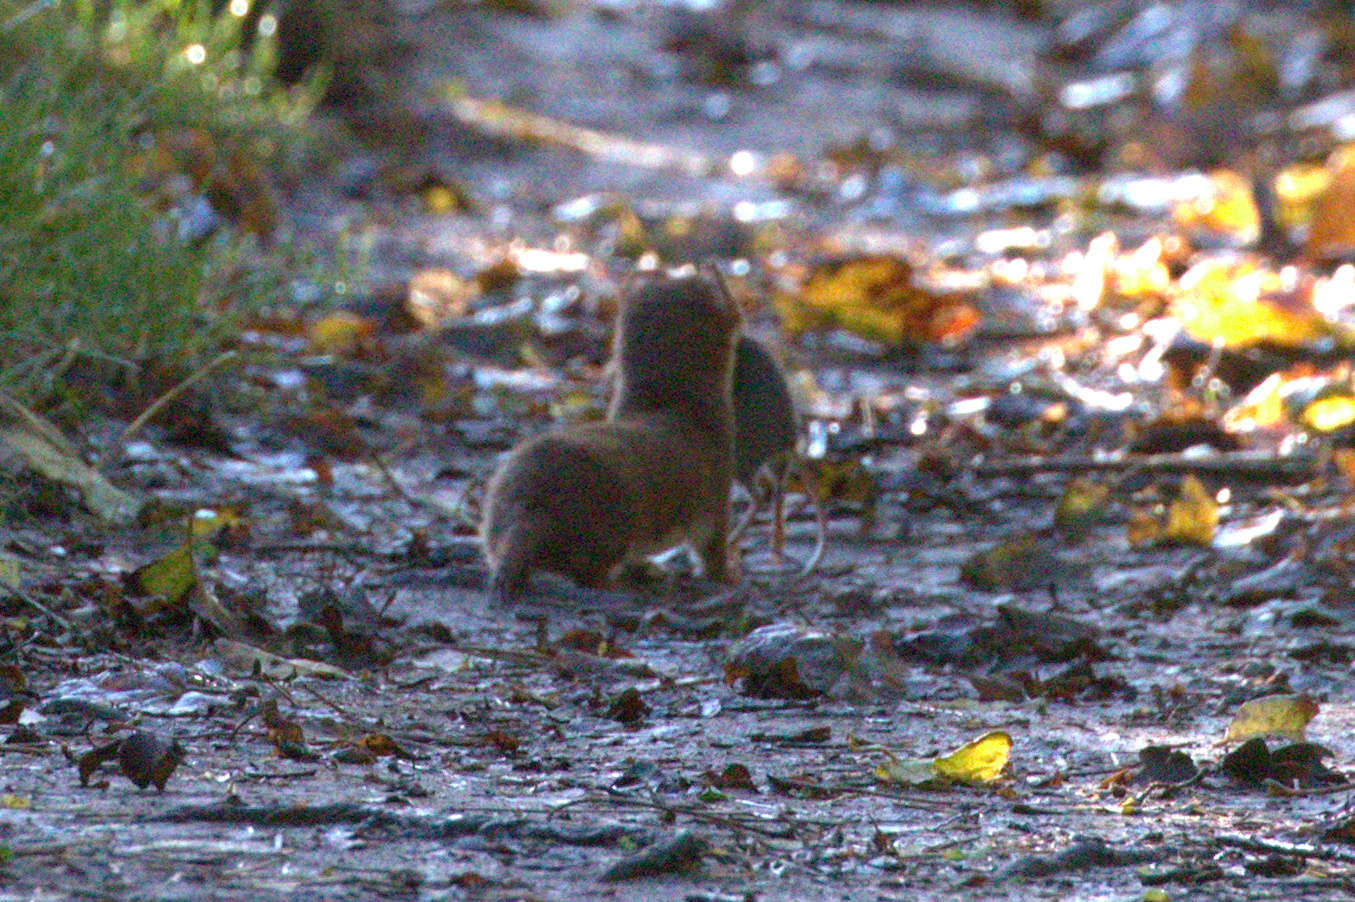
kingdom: Animalia
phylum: Chordata
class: Mammalia
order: Carnivora
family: Mustelidae
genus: Mustela
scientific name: Mustela nivalis
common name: Least weasel
